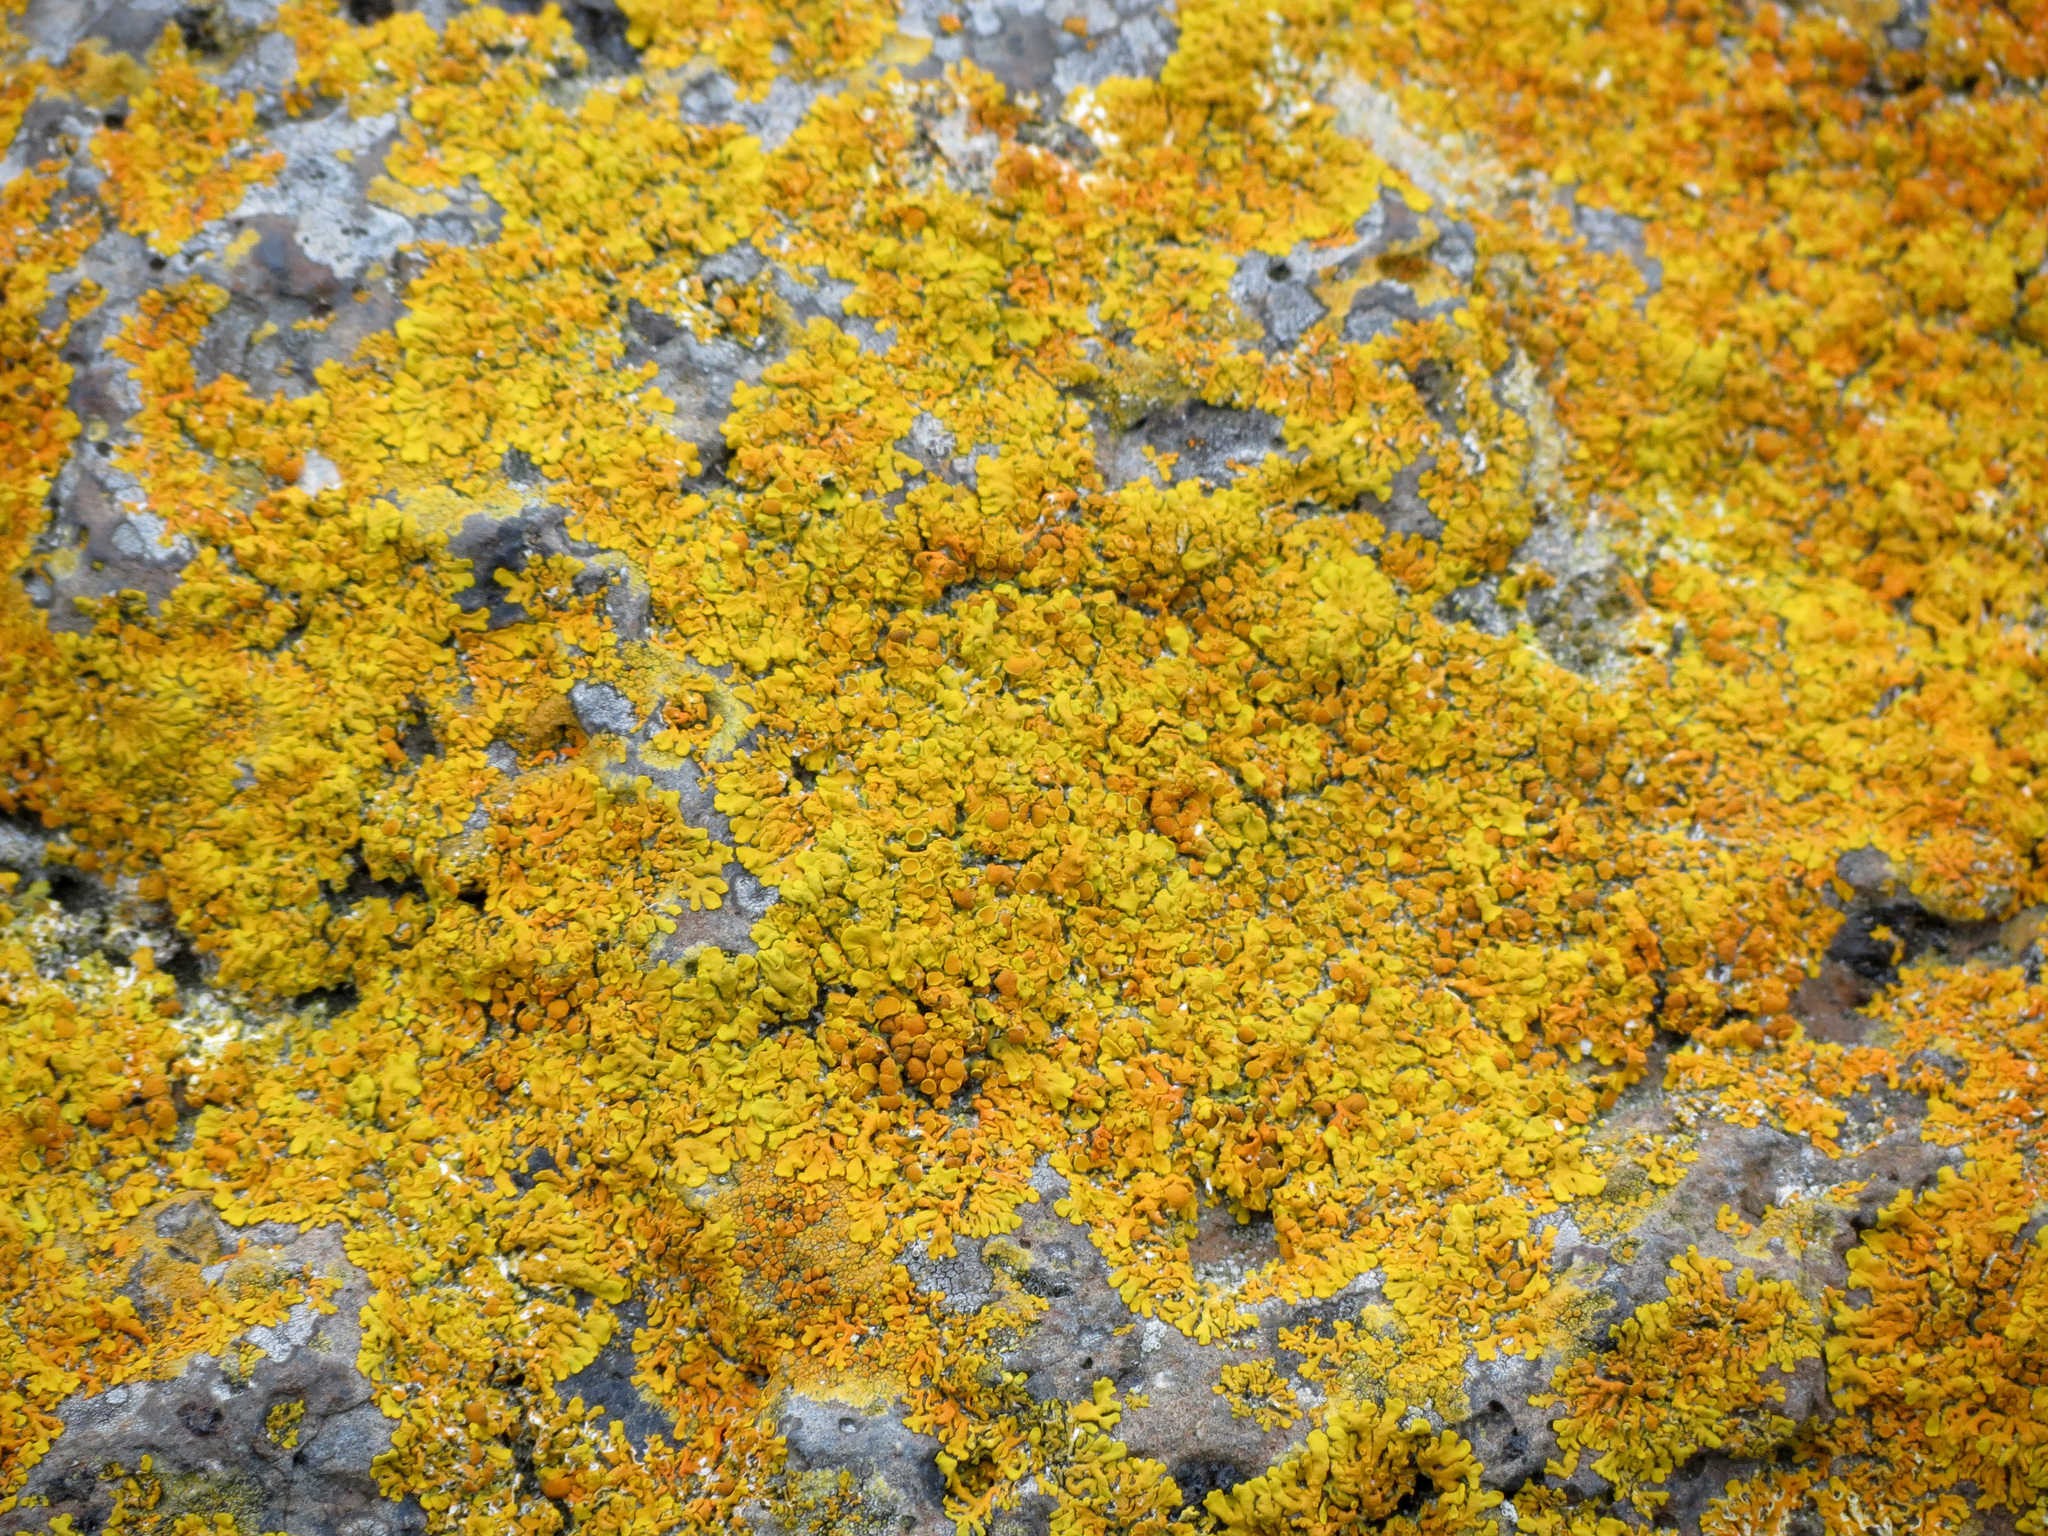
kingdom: Fungi
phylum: Ascomycota
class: Lecanoromycetes
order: Teloschistales
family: Teloschistaceae
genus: Dufourea
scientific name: Dufourea ligulata
